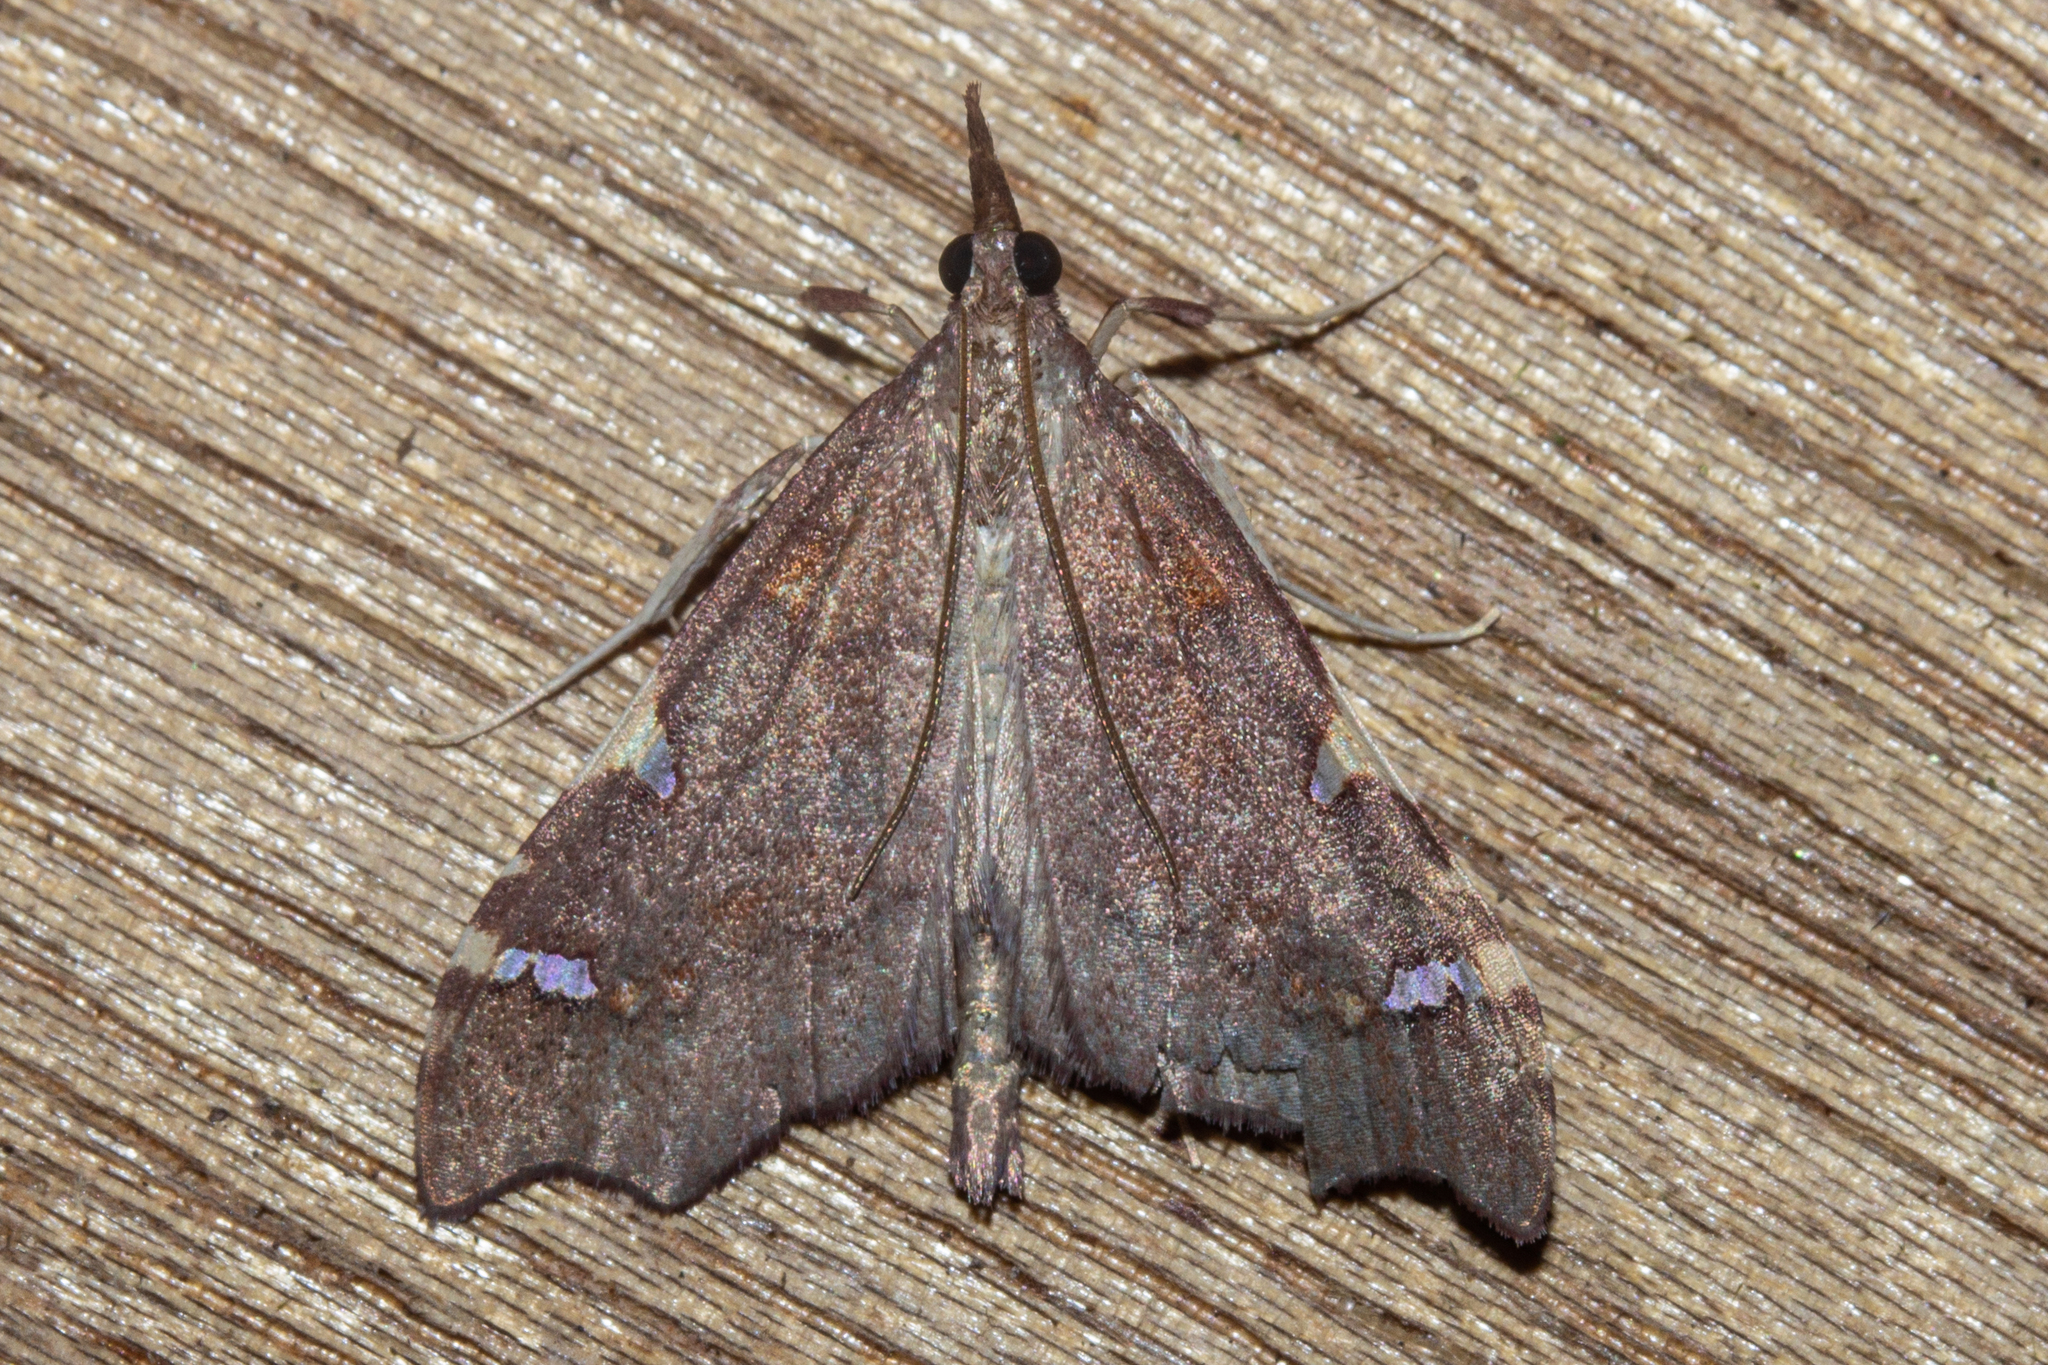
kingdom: Animalia
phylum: Arthropoda
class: Insecta
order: Lepidoptera
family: Crambidae
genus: Deana
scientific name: Deana hybreasalis
